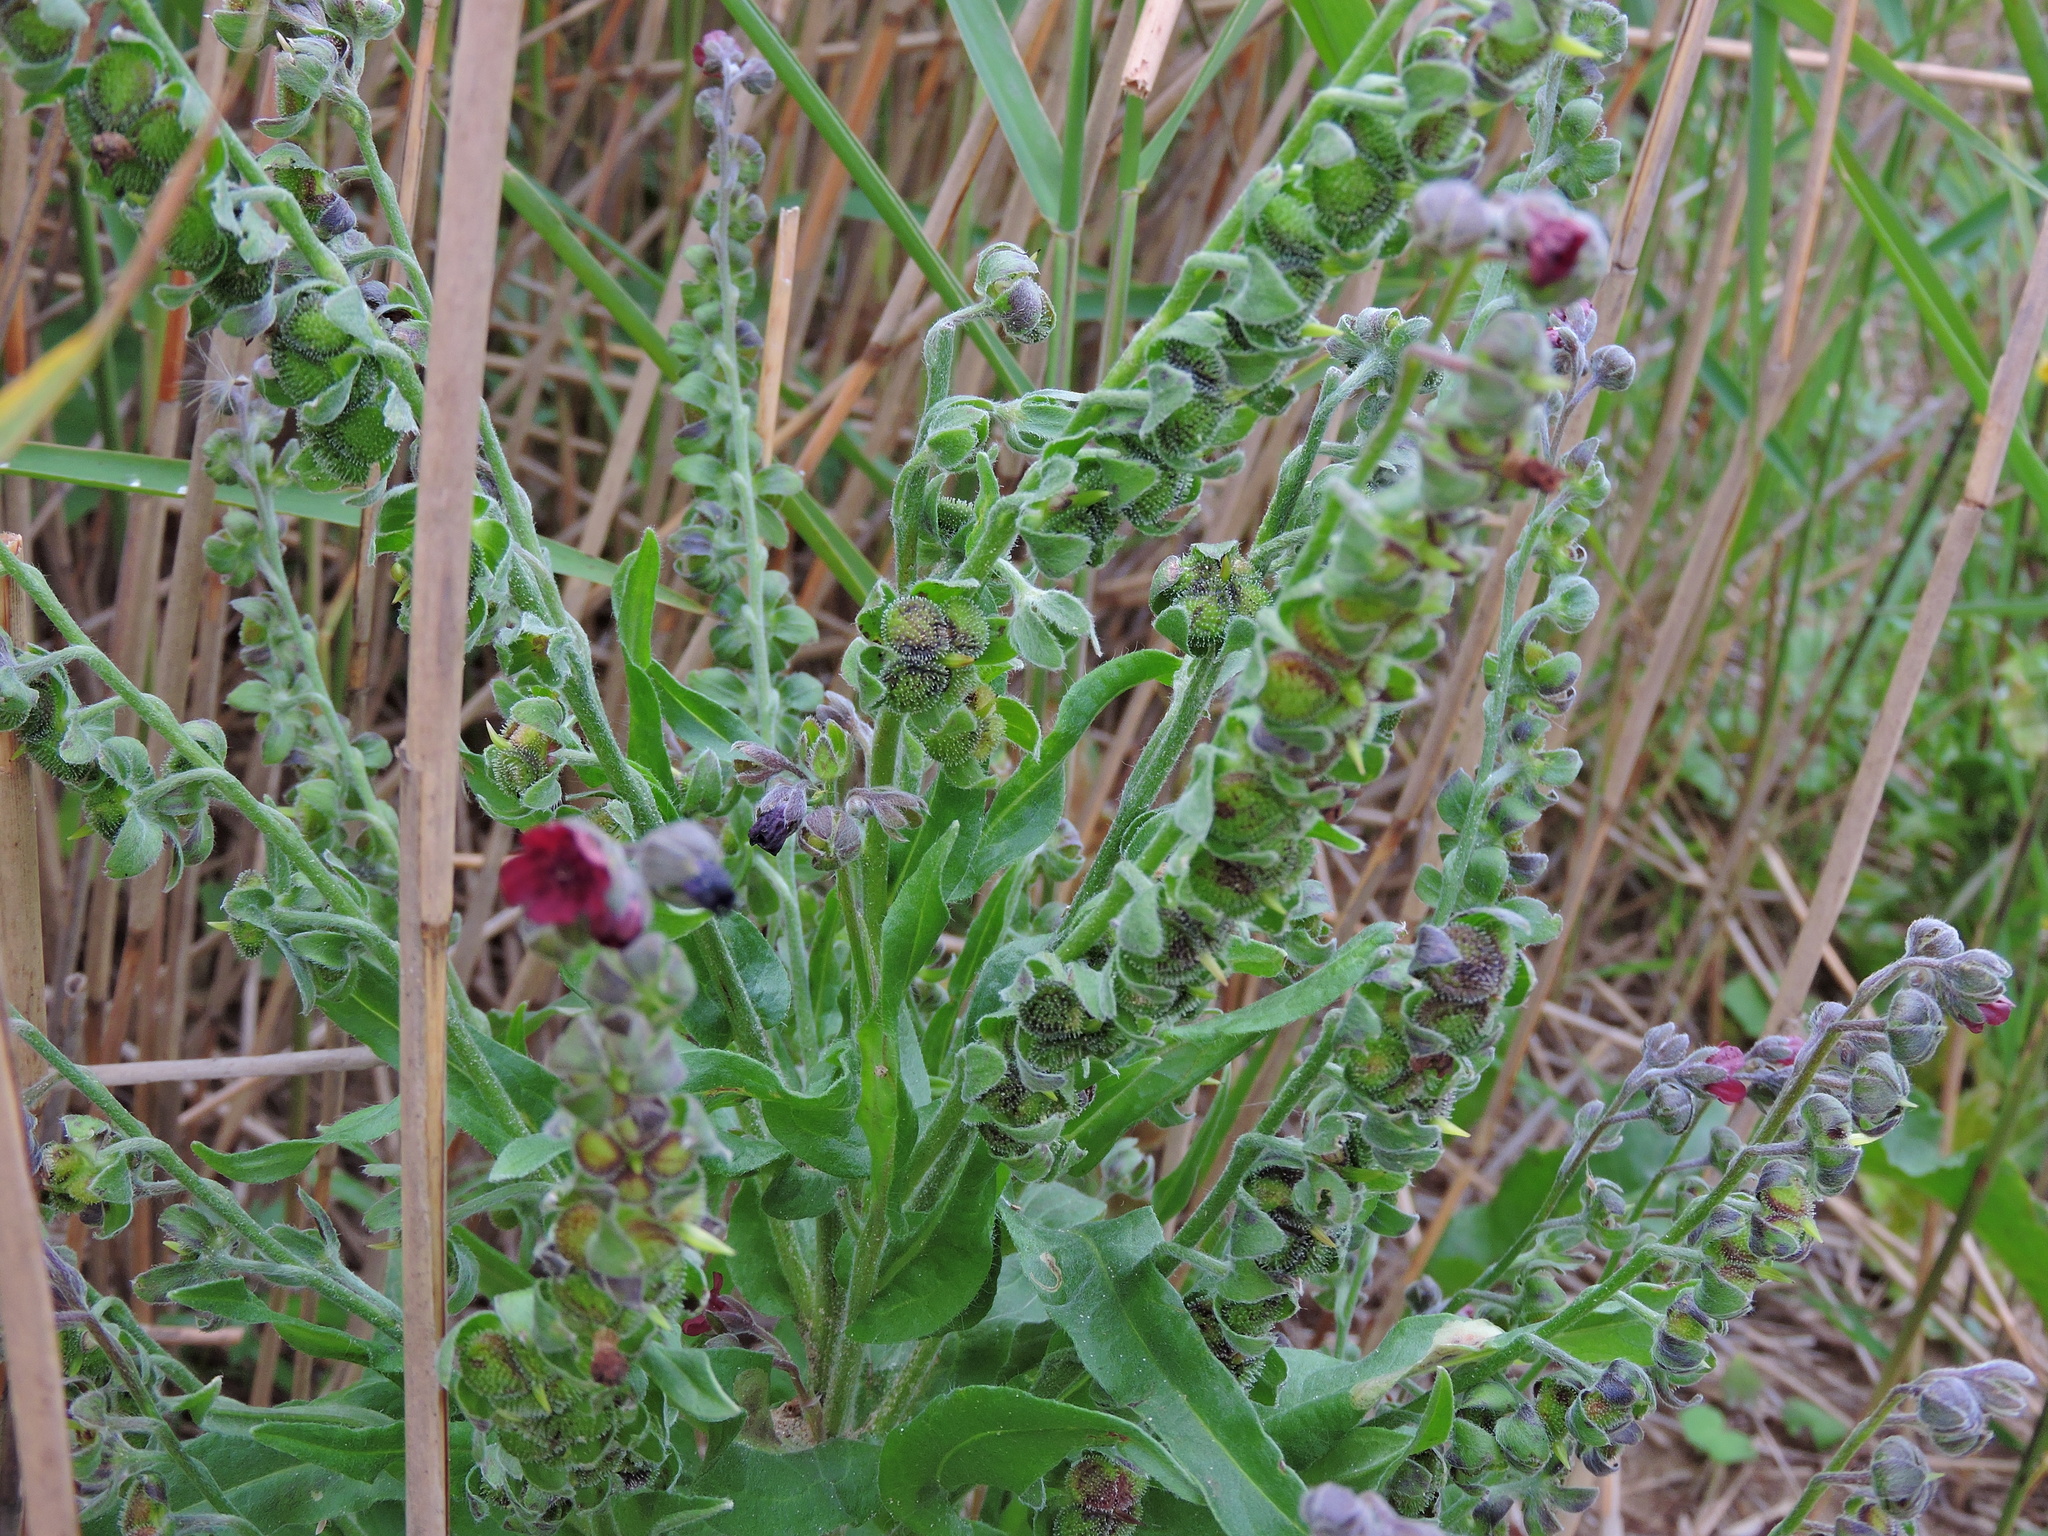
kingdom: Plantae
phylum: Tracheophyta
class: Magnoliopsida
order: Boraginales
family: Boraginaceae
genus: Cynoglossum
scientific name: Cynoglossum officinale
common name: Hound's-tongue
